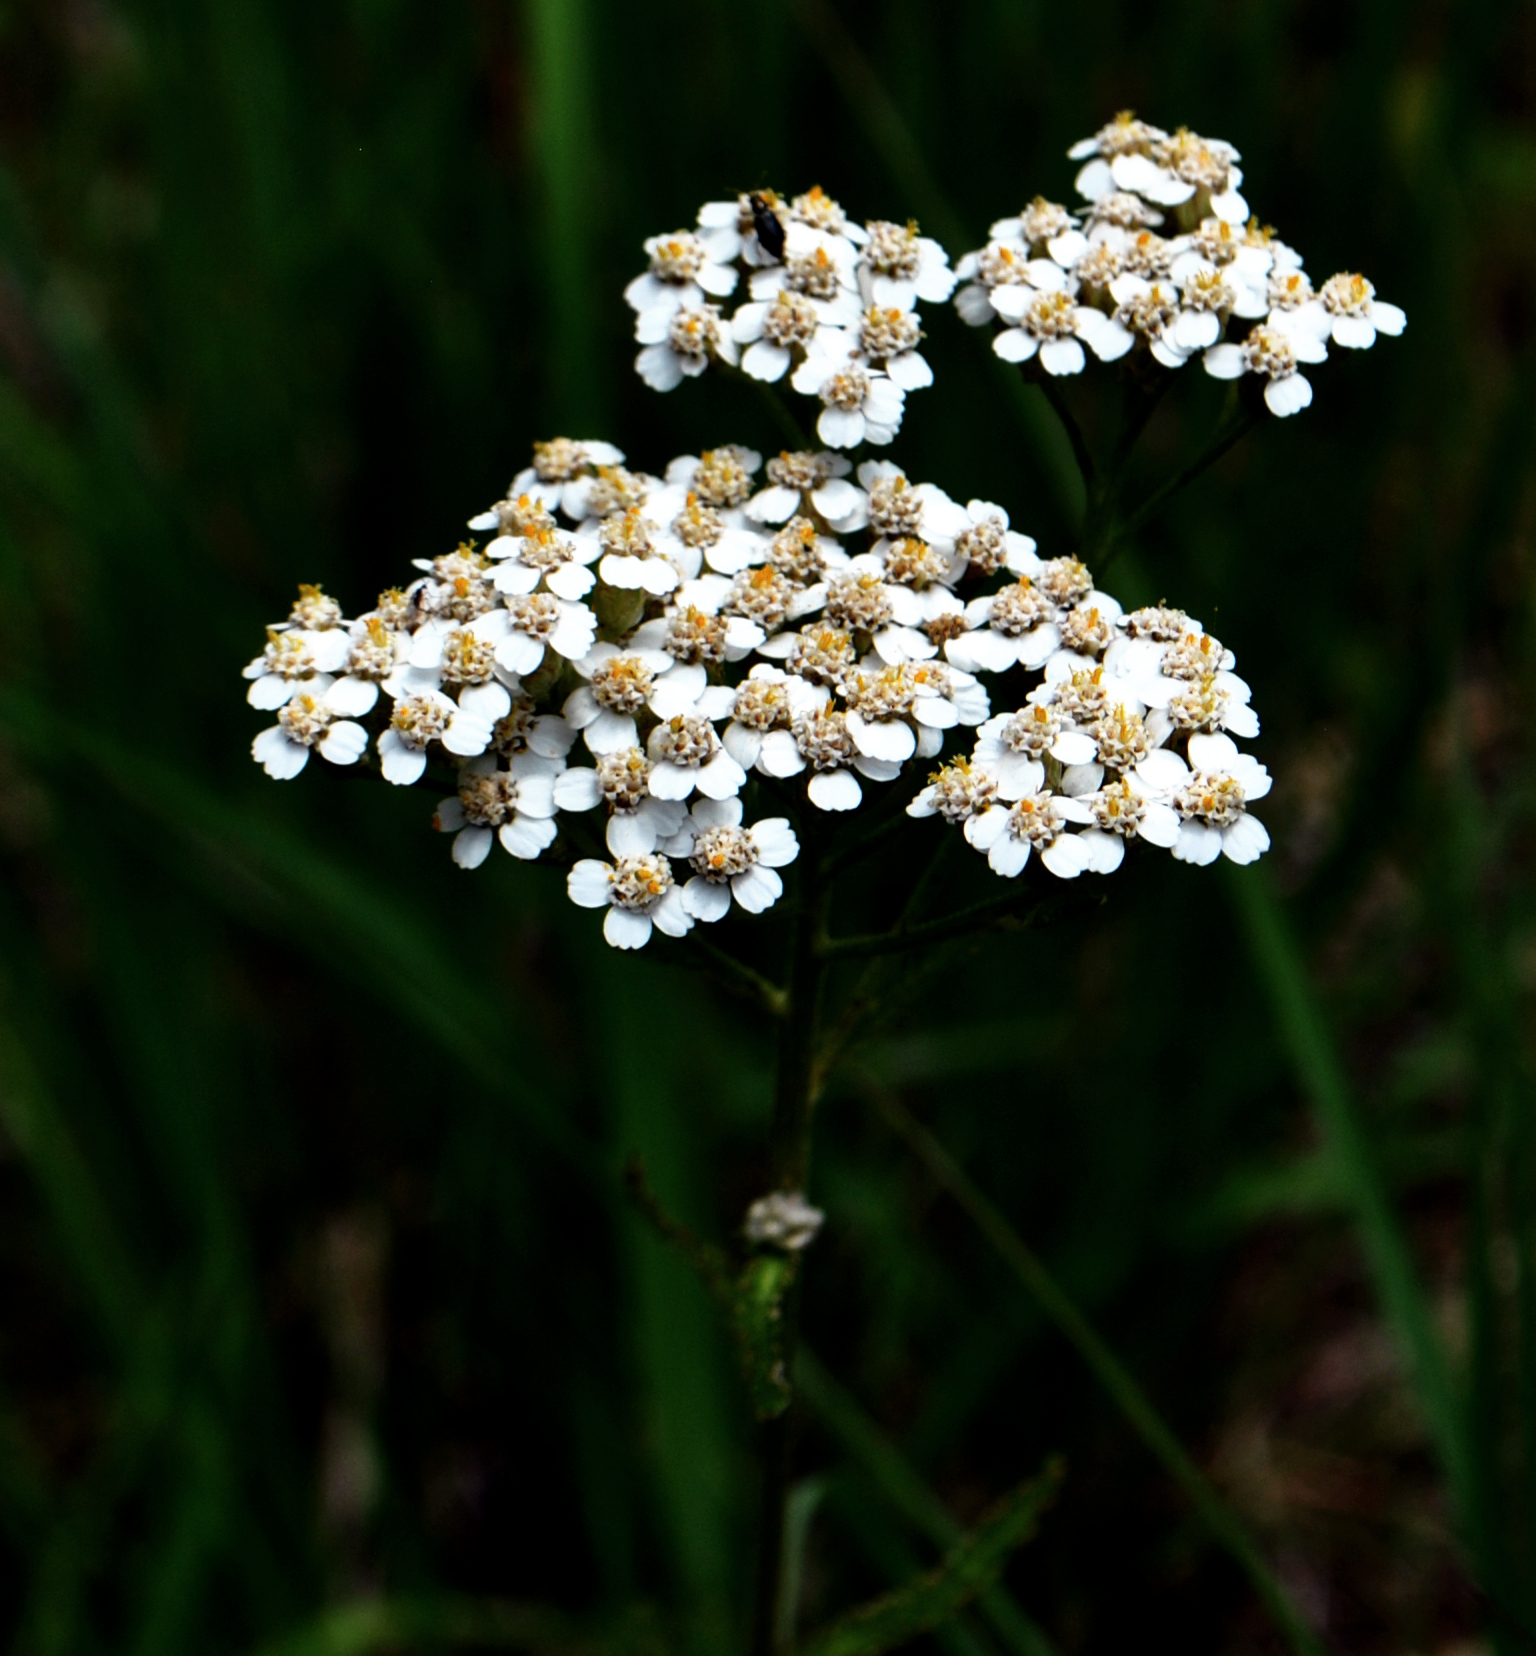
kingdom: Plantae
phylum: Tracheophyta
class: Magnoliopsida
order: Asterales
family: Asteraceae
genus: Achillea
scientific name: Achillea millefolium
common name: Yarrow
